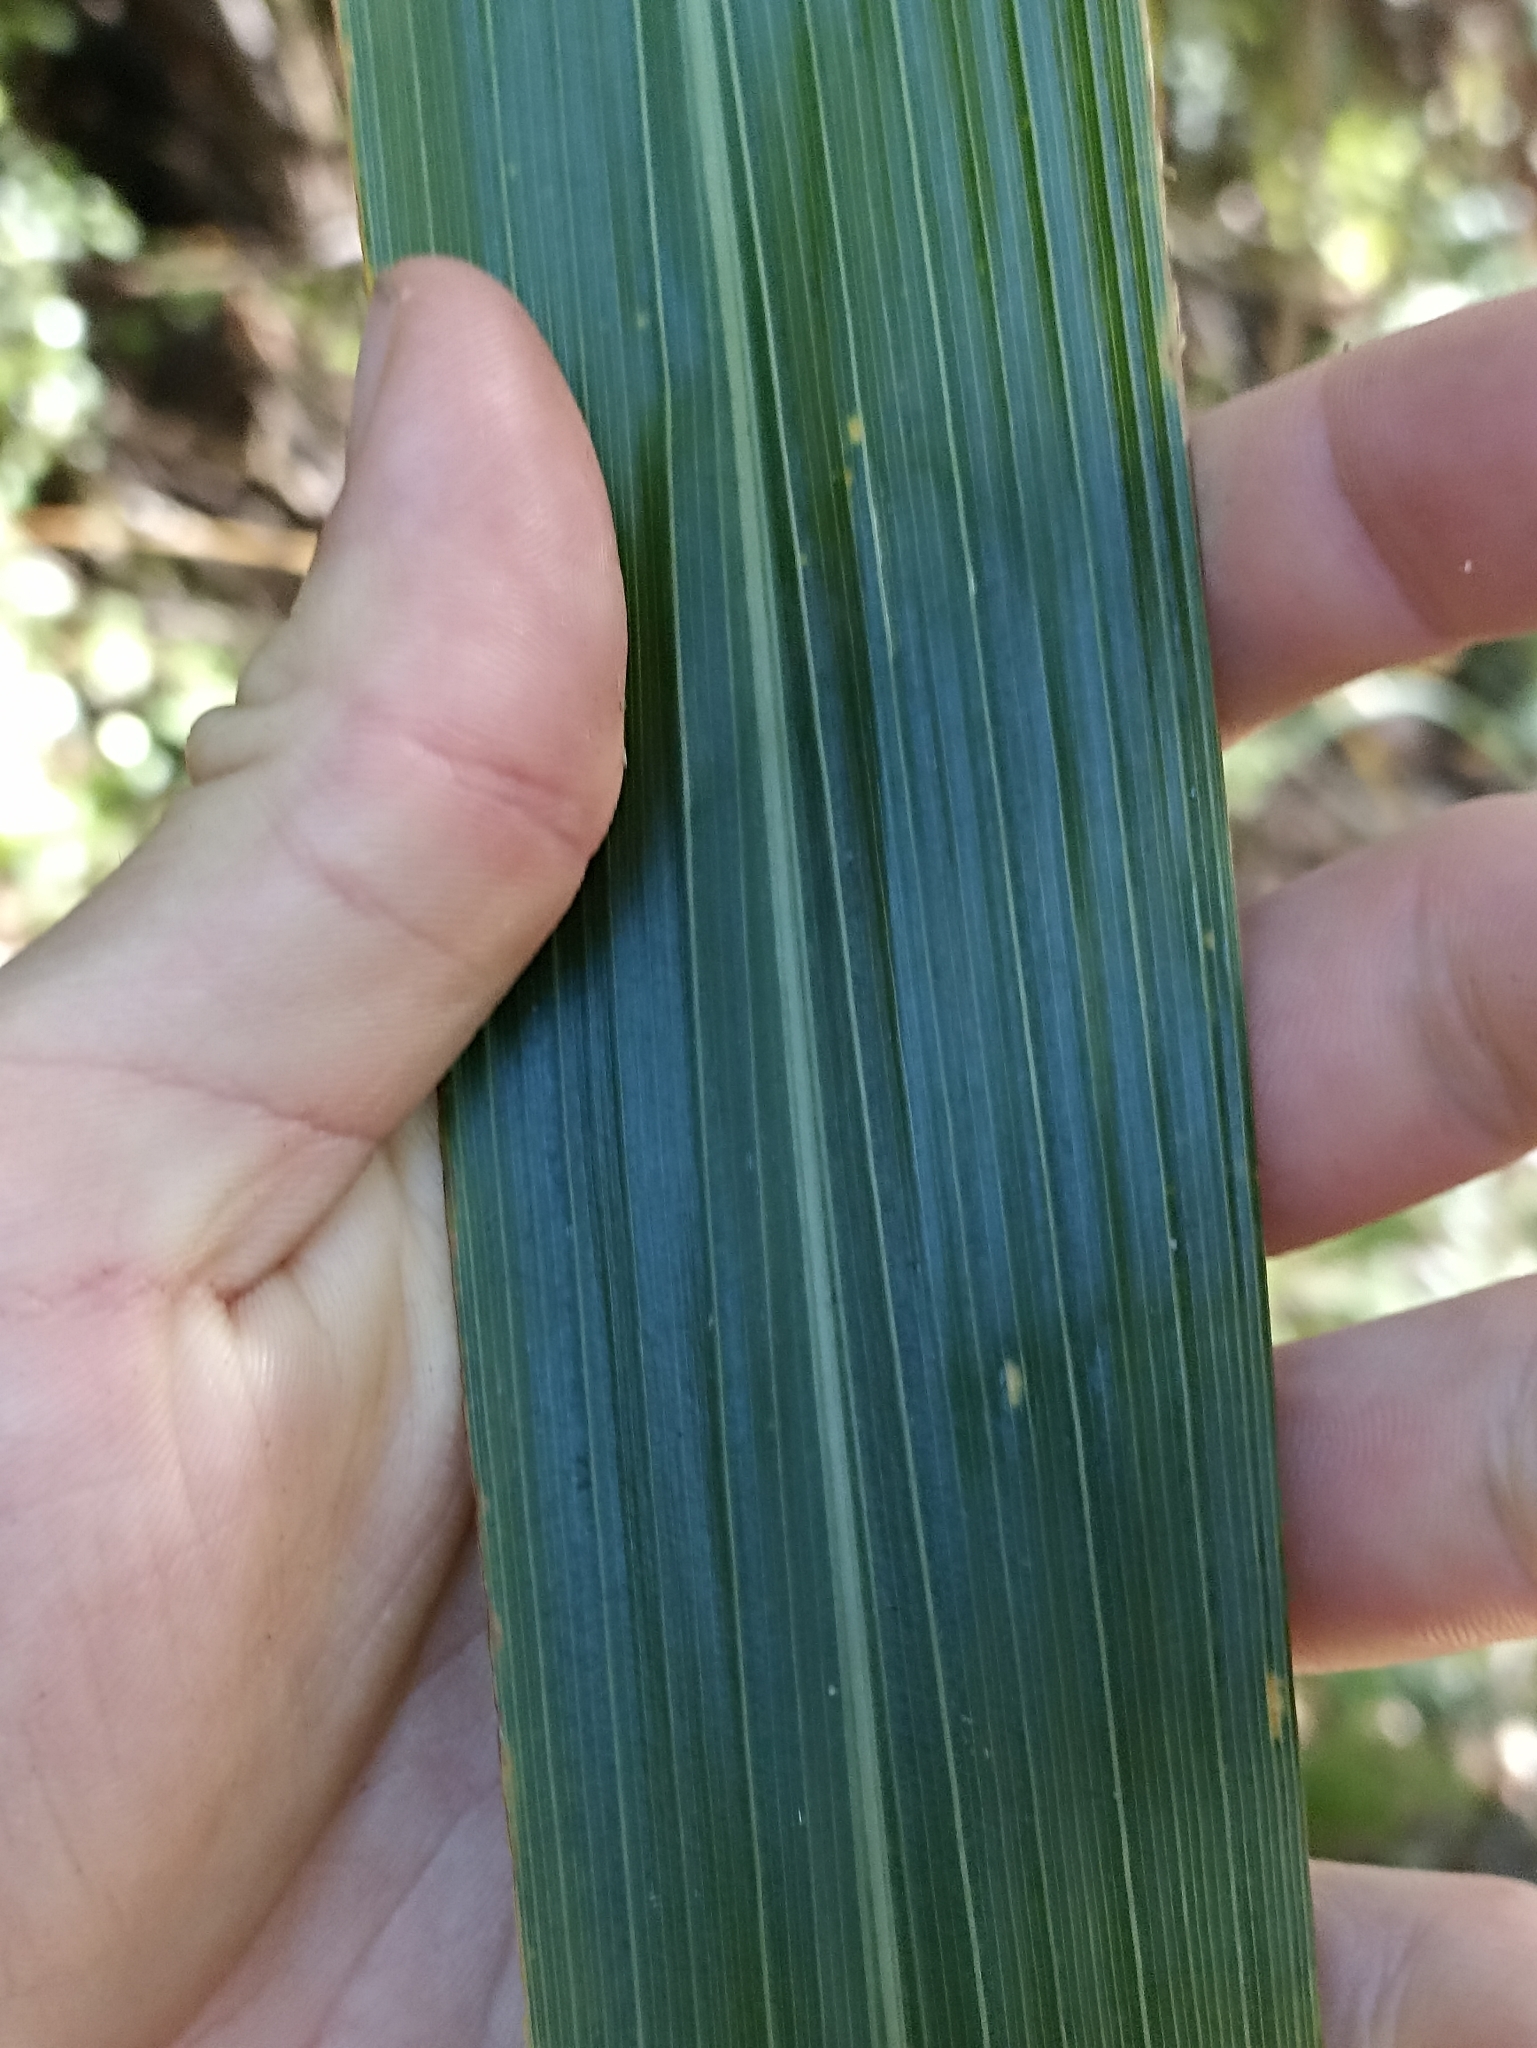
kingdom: Plantae
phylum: Tracheophyta
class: Liliopsida
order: Asparagales
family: Asparagaceae
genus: Cordyline
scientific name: Cordyline banksii
